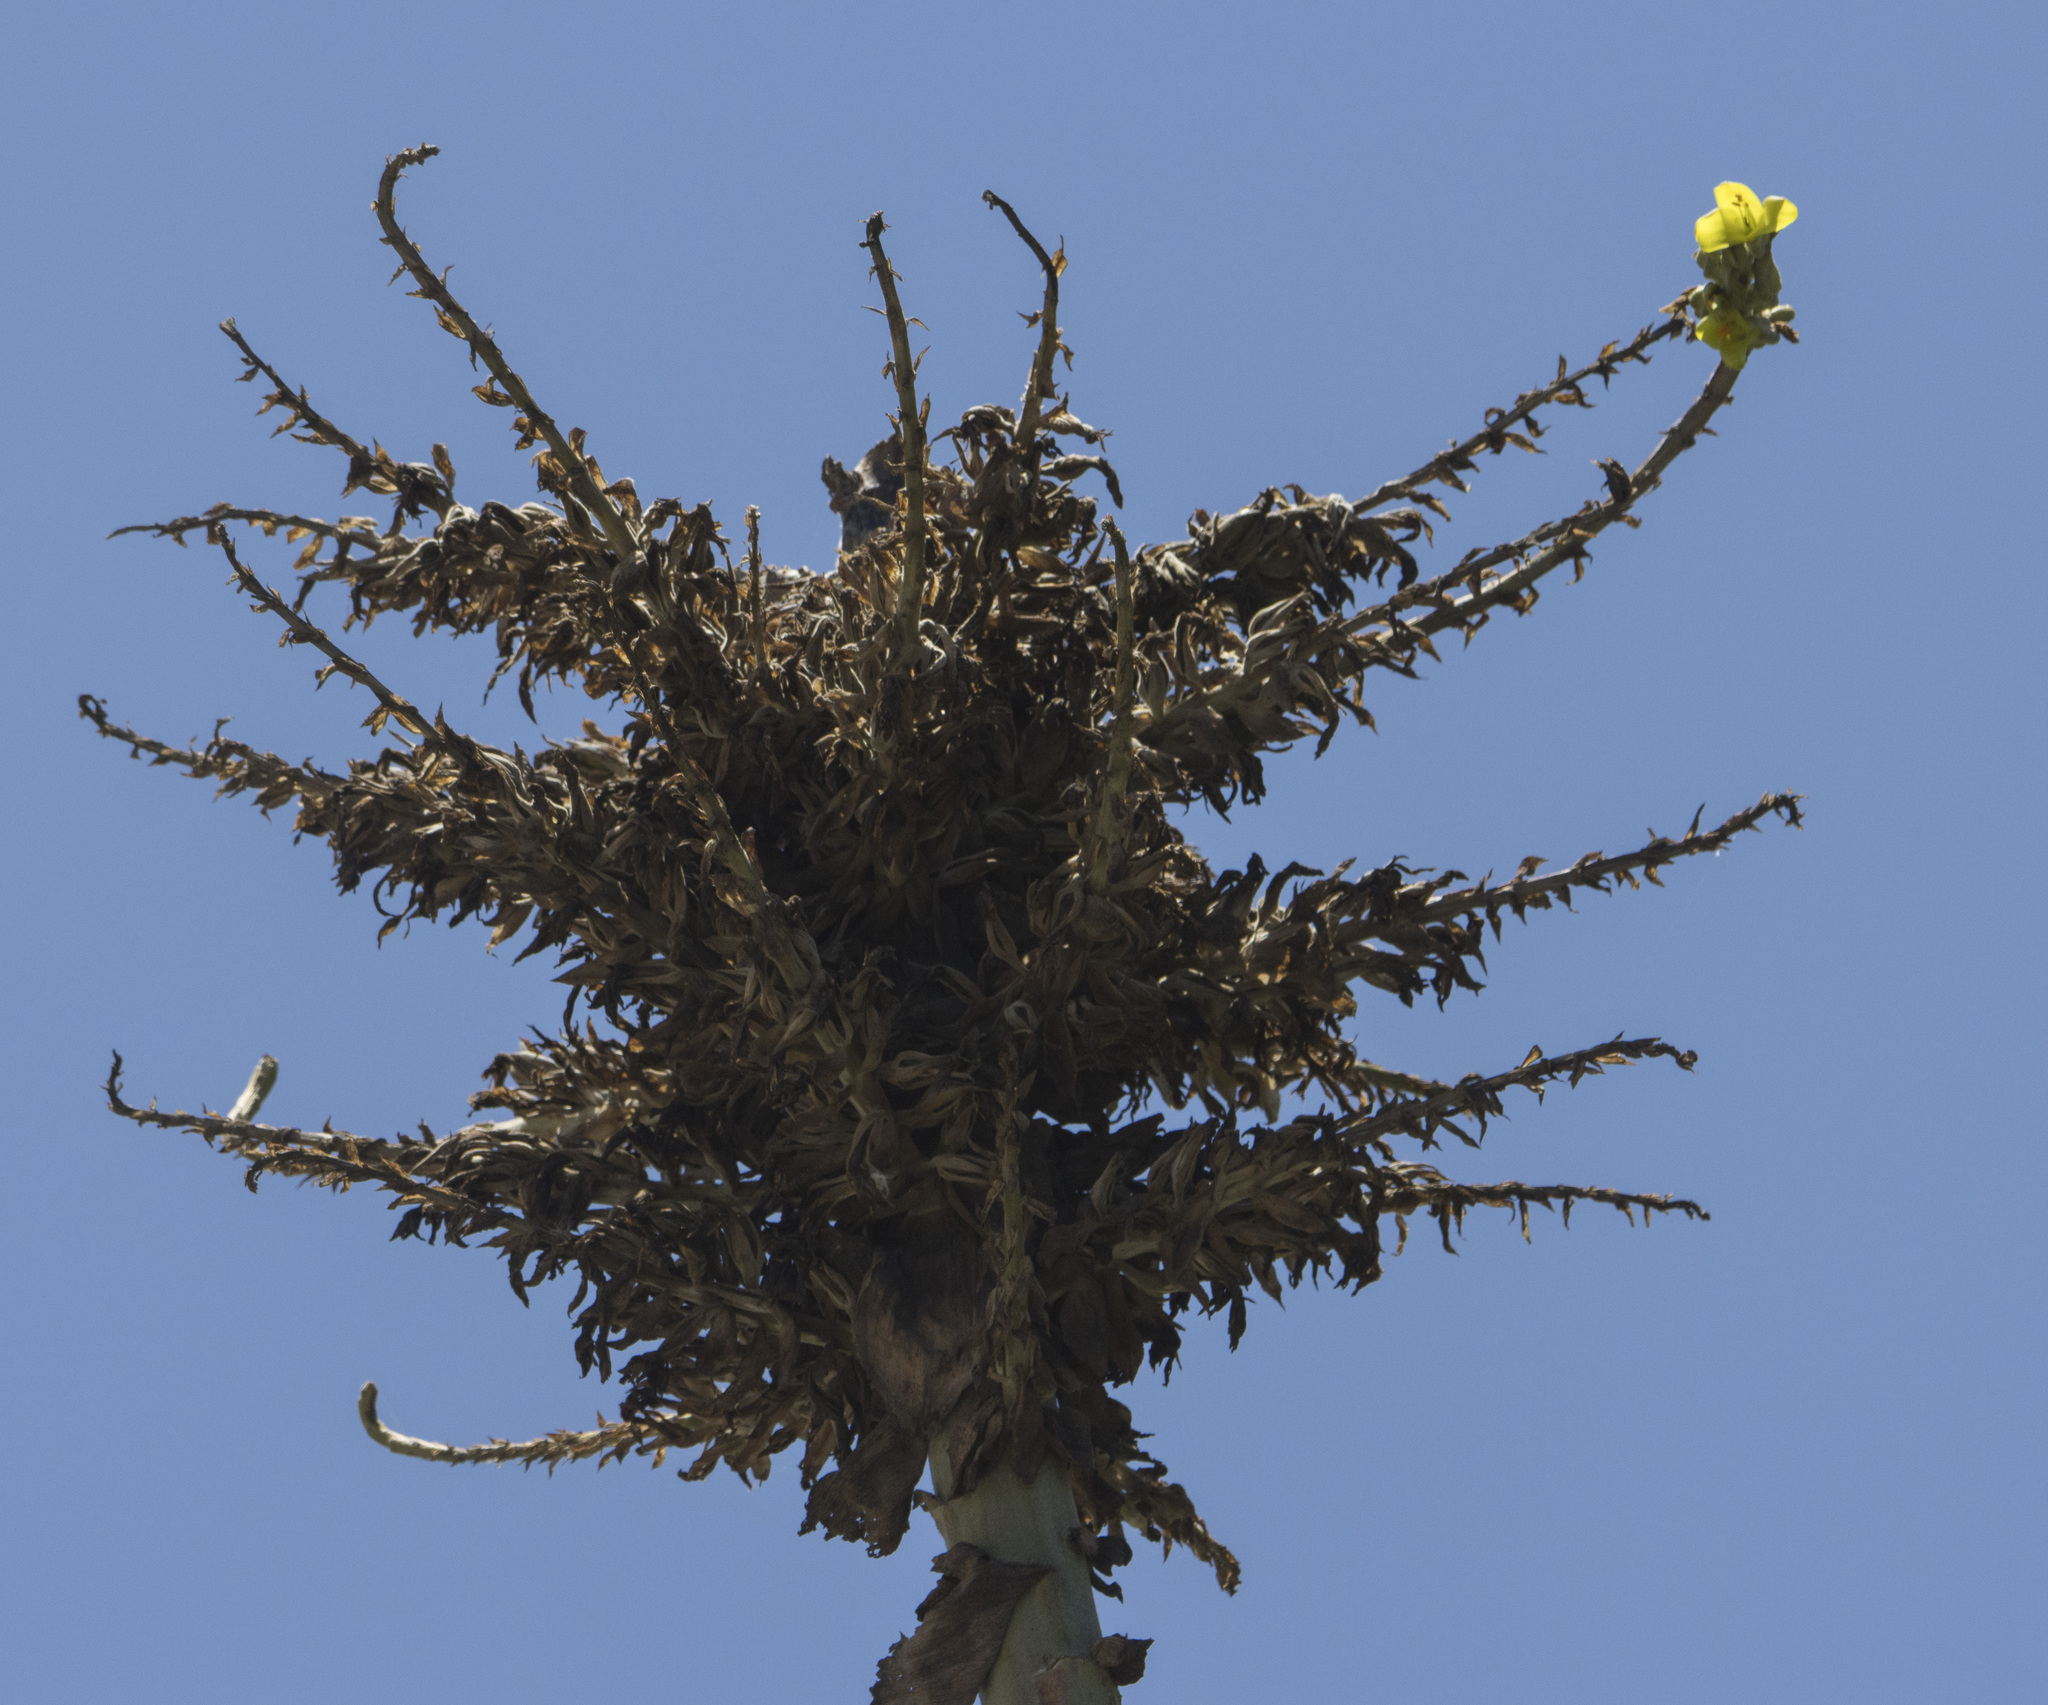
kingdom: Plantae
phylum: Tracheophyta
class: Liliopsida
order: Poales
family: Bromeliaceae
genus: Puya
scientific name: Puya chilensis
